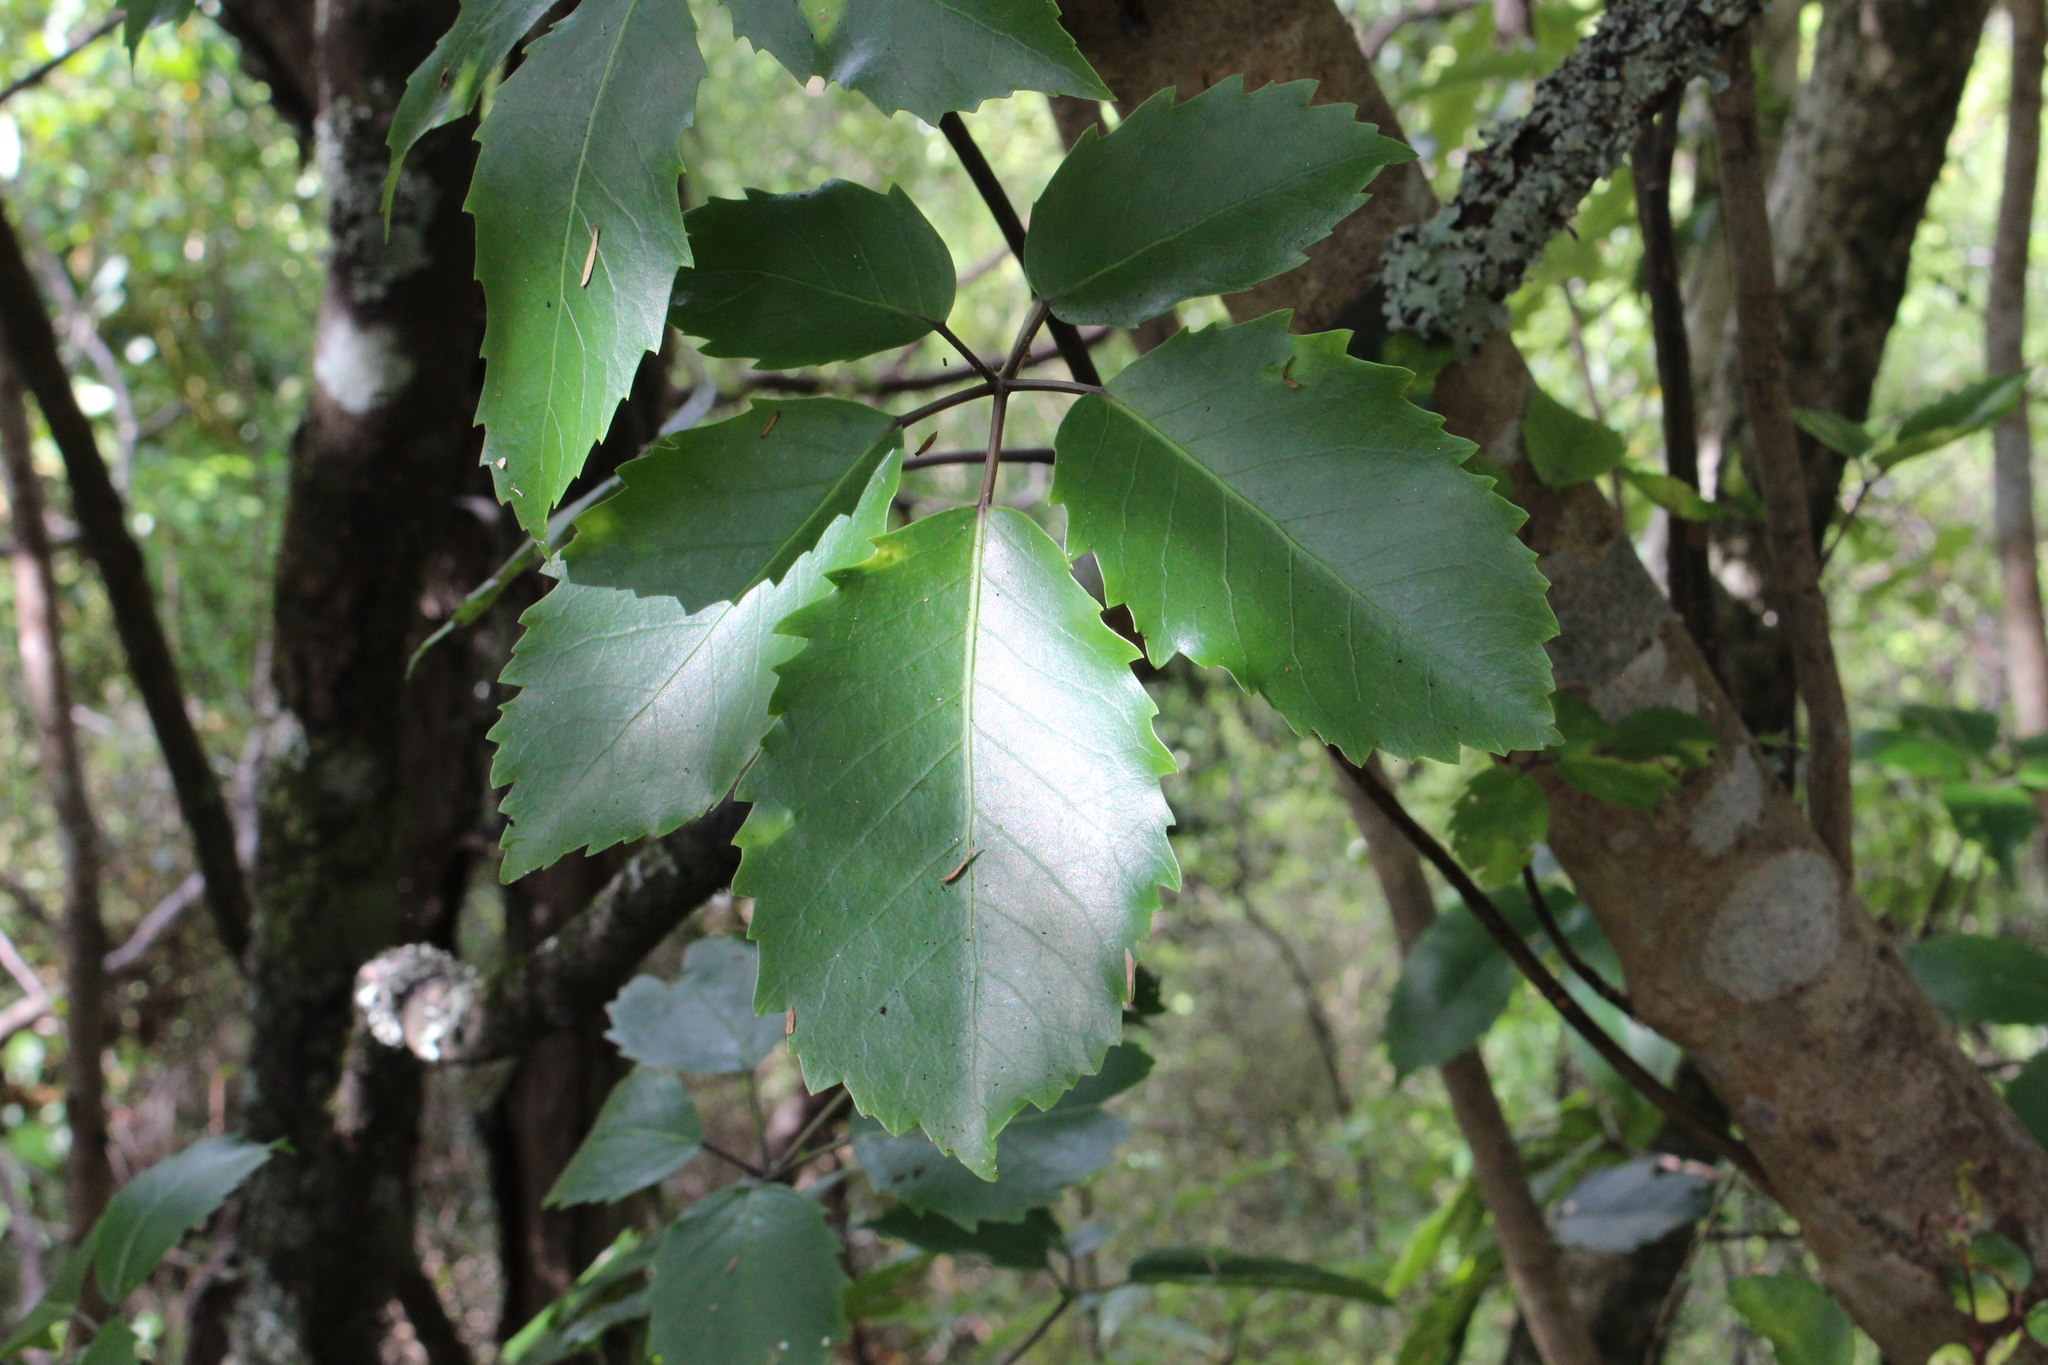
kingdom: Plantae
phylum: Tracheophyta
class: Magnoliopsida
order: Apiales
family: Araliaceae
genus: Neopanax
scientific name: Neopanax arboreus
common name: Five-fingers
